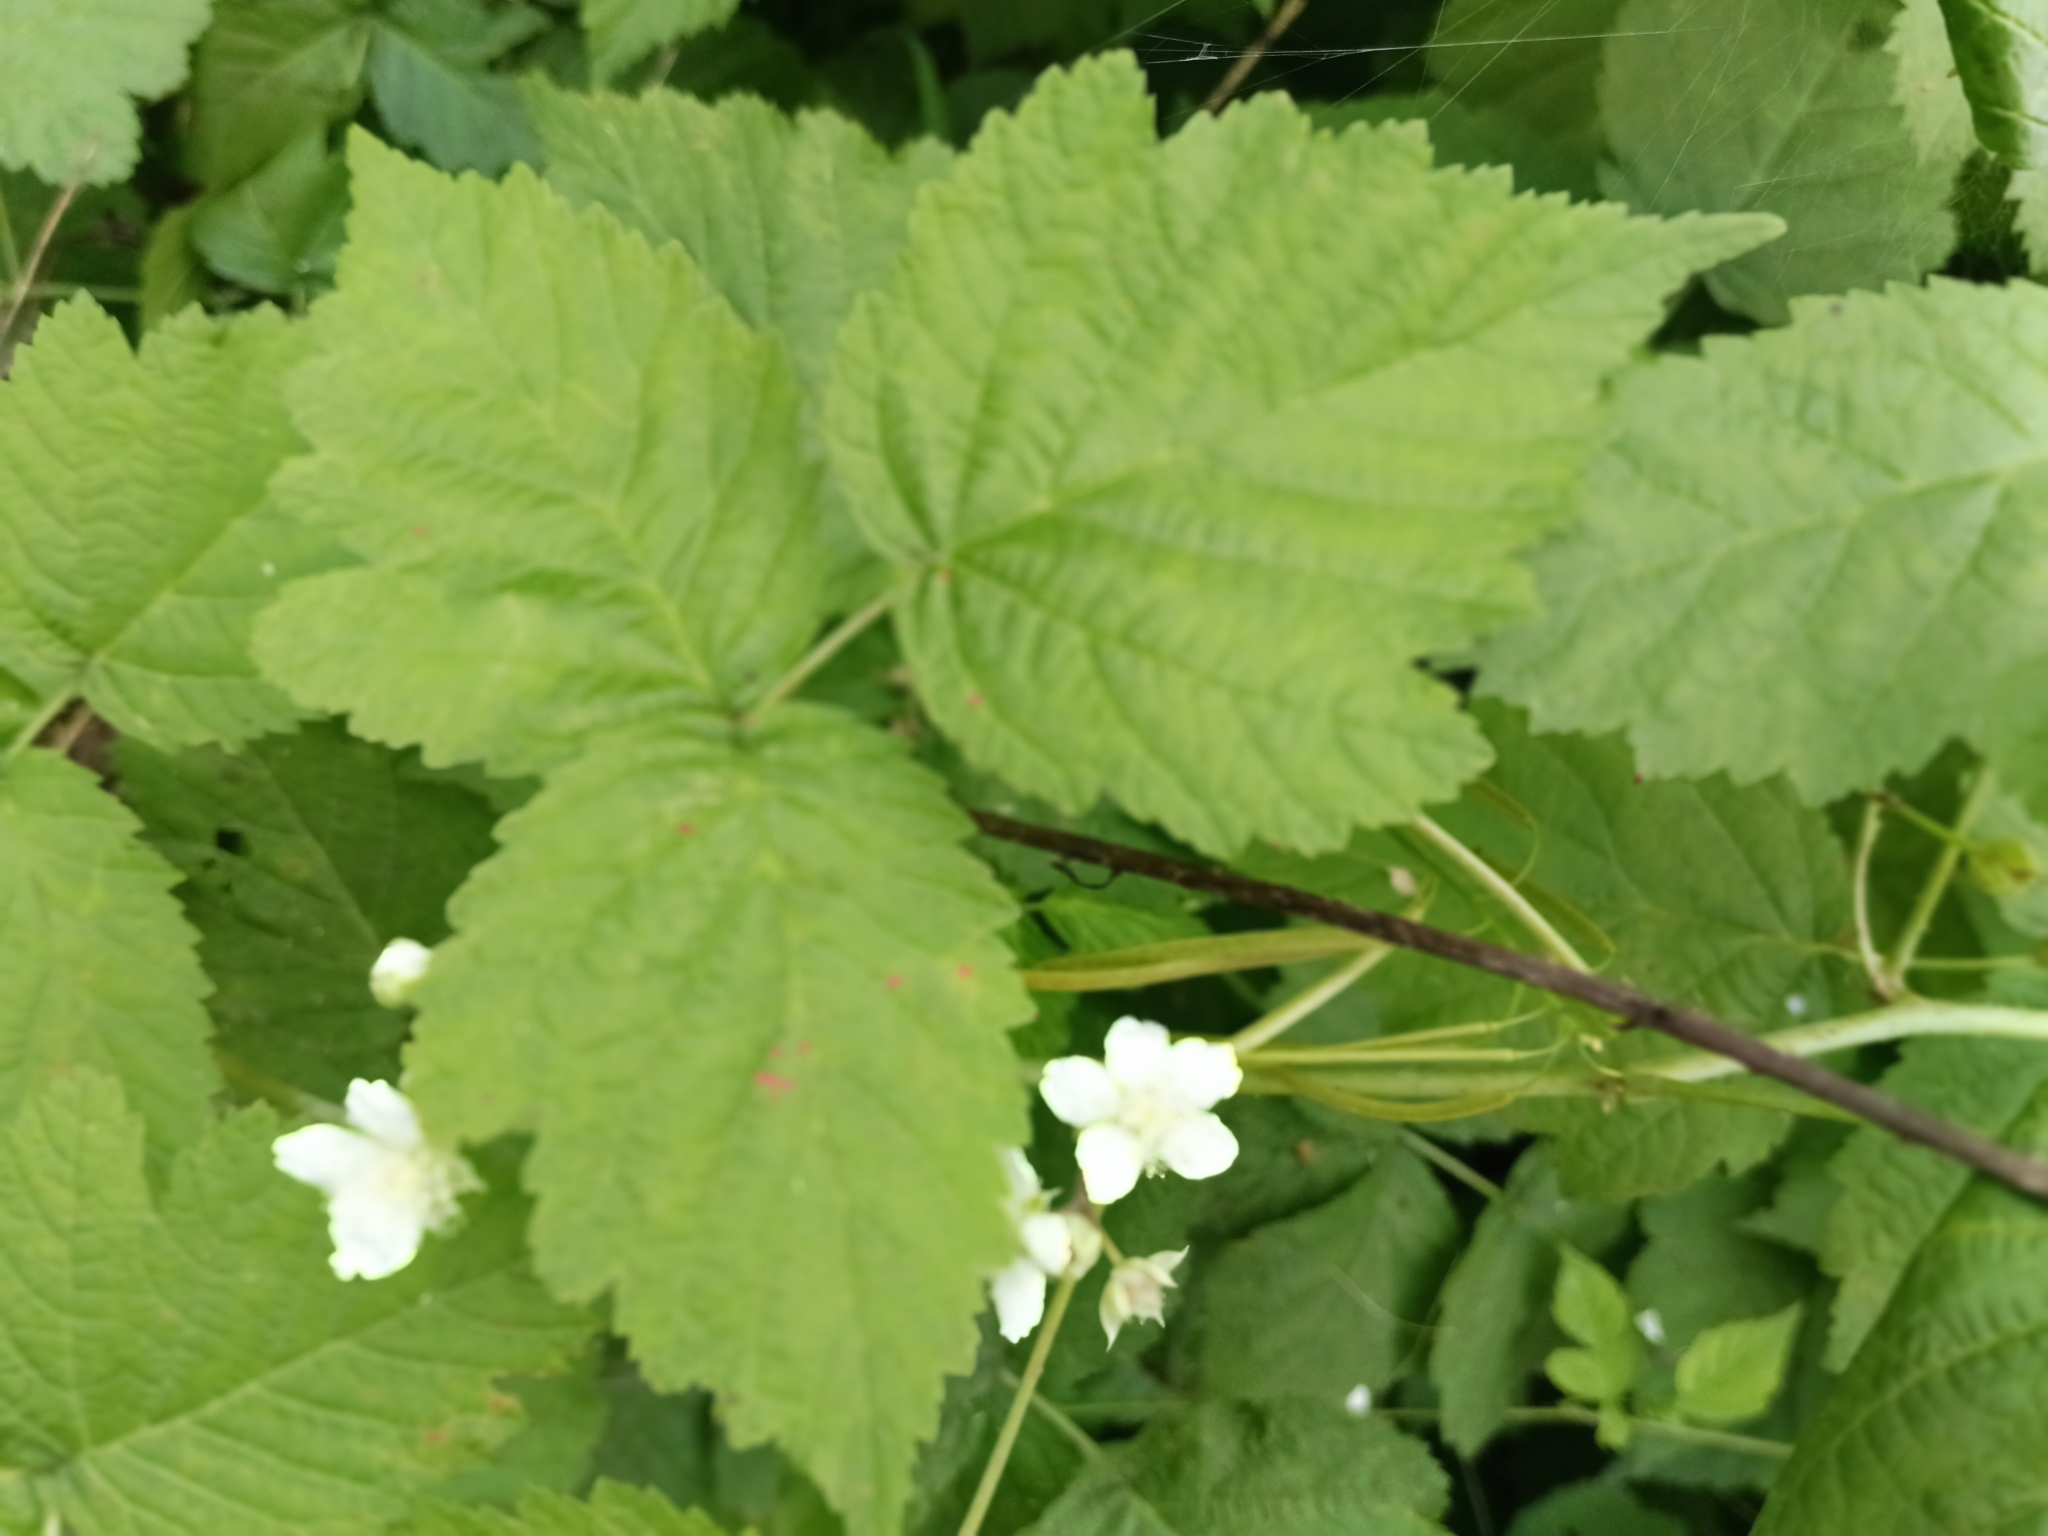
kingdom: Plantae
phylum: Tracheophyta
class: Magnoliopsida
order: Rosales
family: Rosaceae
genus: Rubus
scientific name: Rubus caesius
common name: Dewberry
